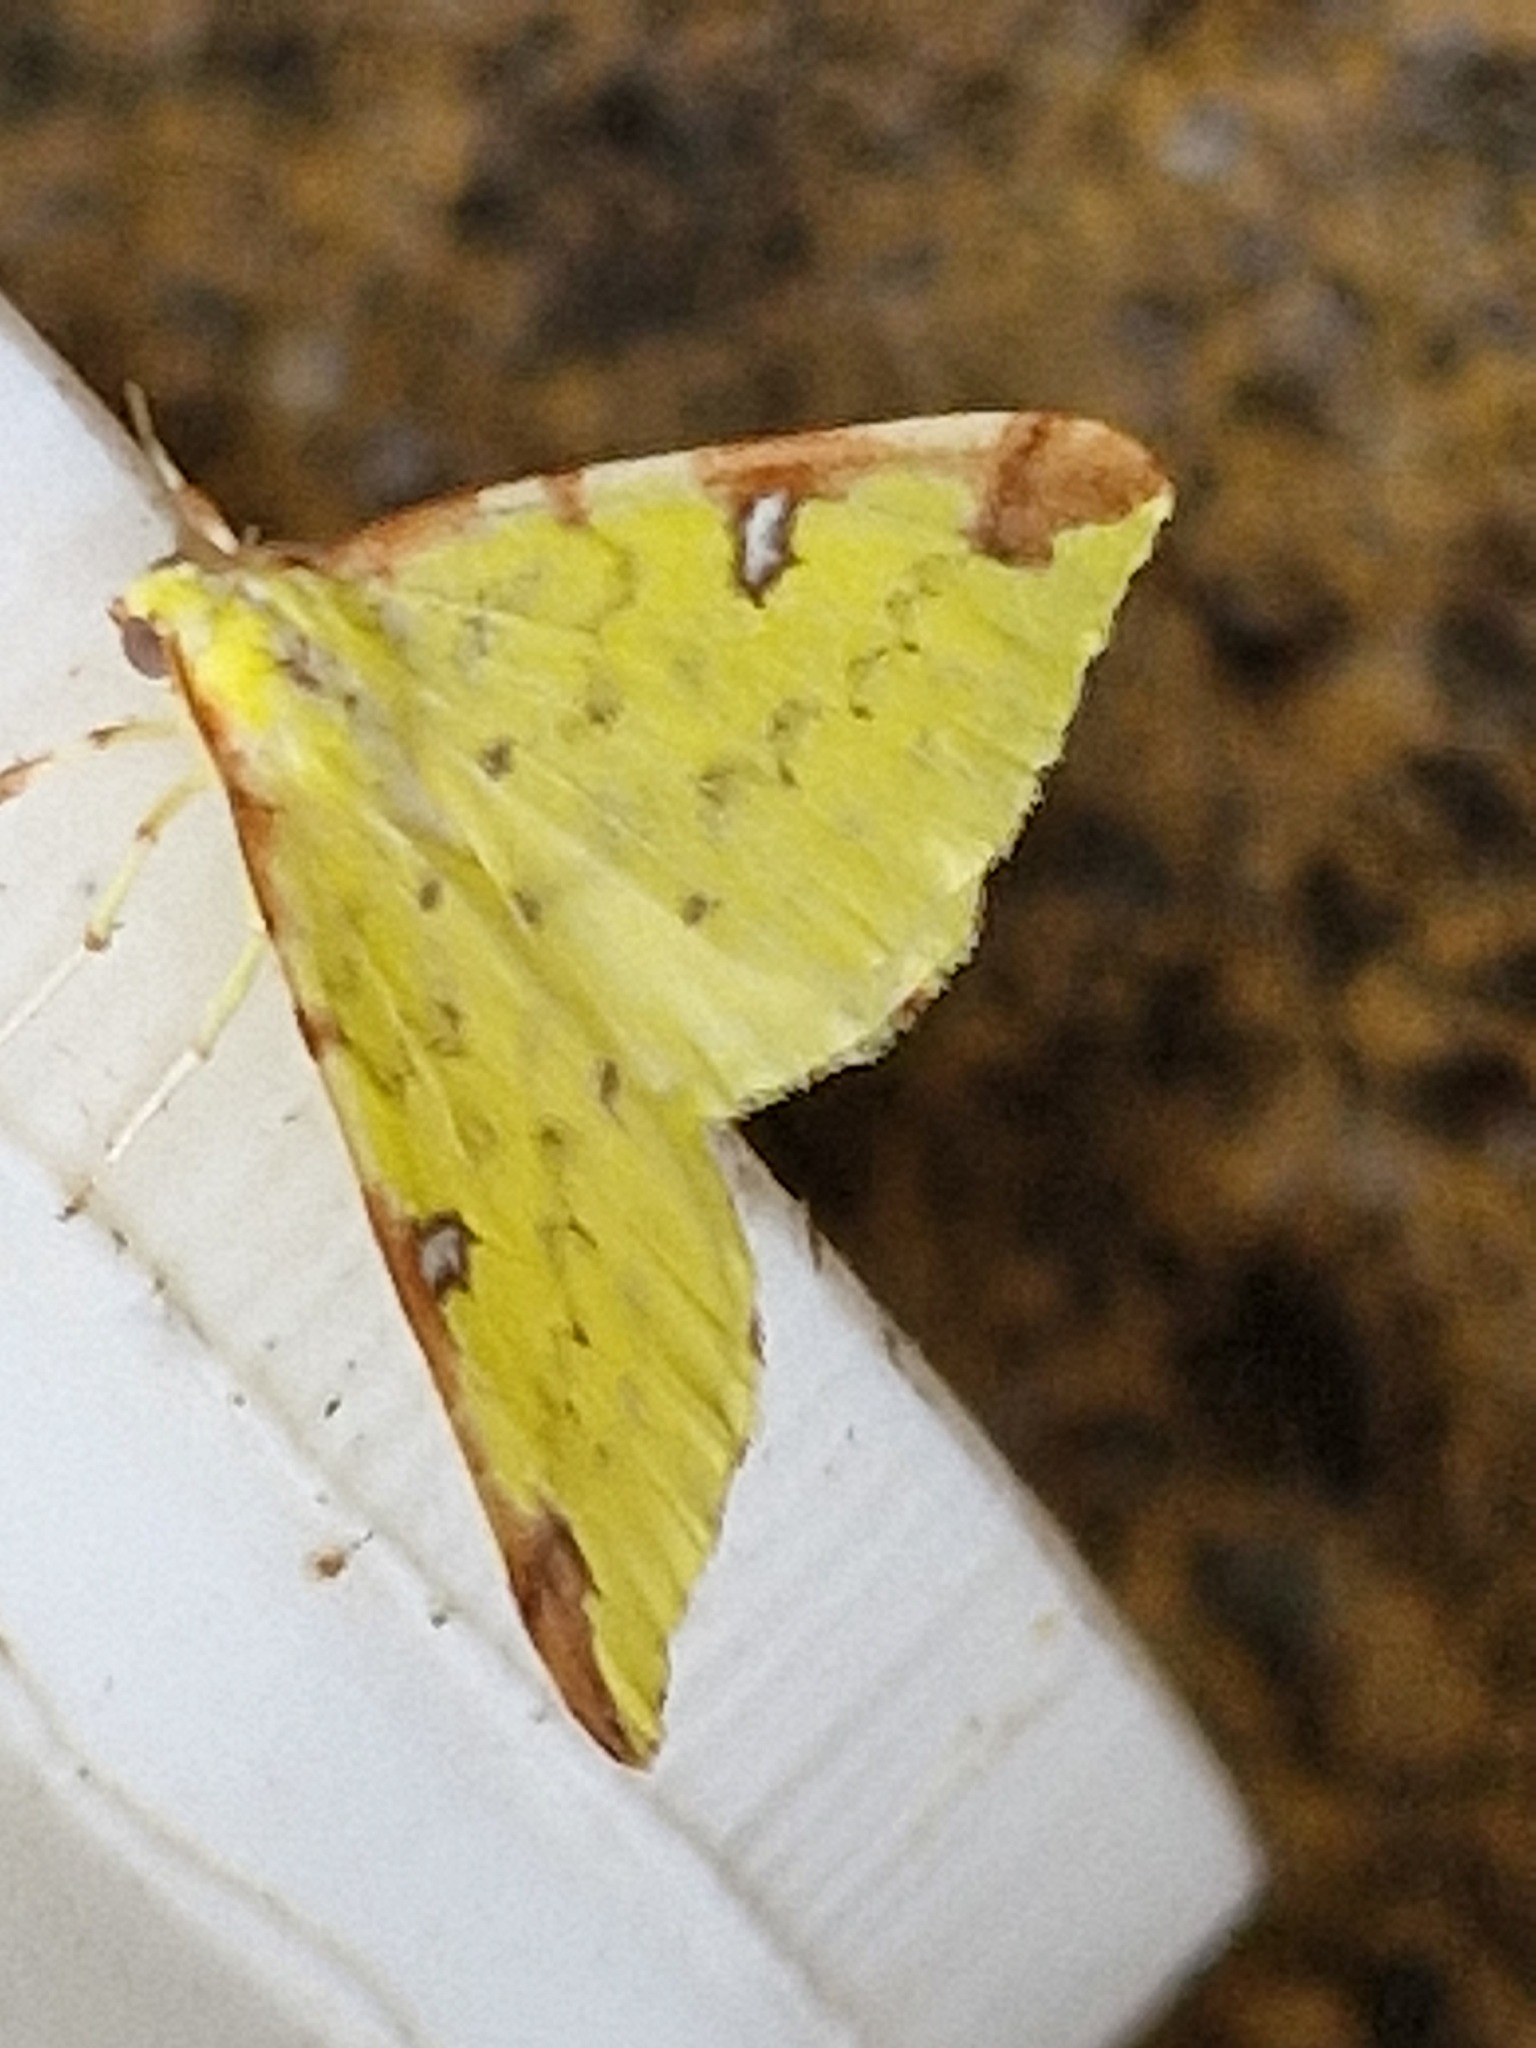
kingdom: Animalia
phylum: Arthropoda
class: Insecta
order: Lepidoptera
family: Geometridae
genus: Opisthograptis
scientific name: Opisthograptis luteolata
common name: Brimstone moth
